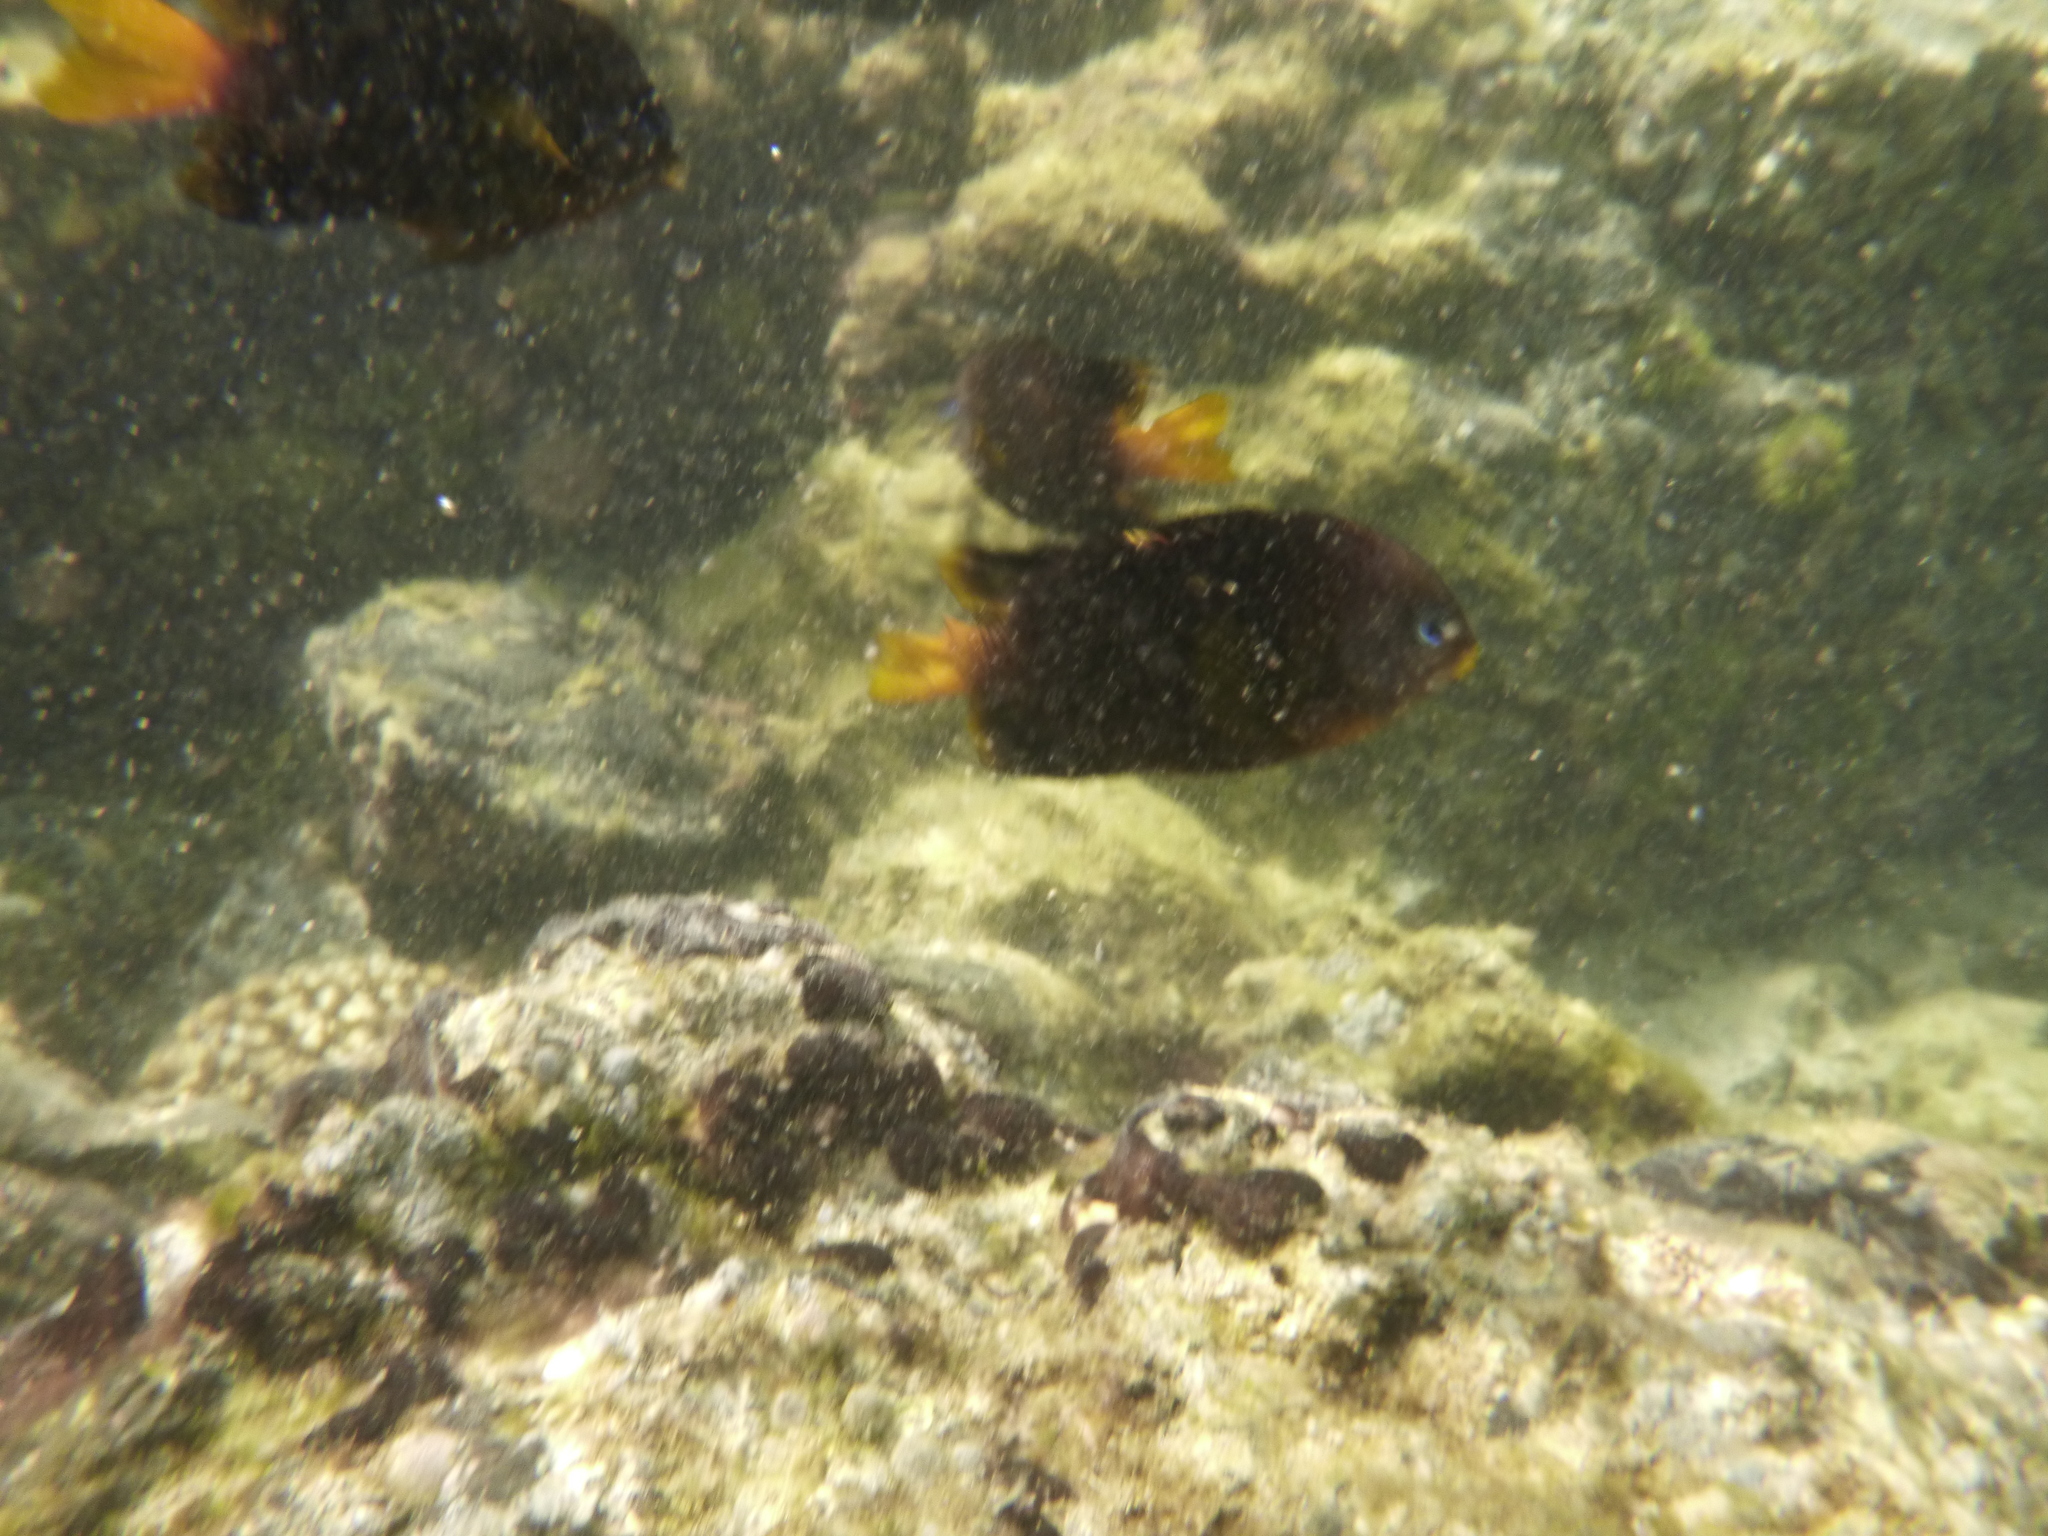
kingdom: Animalia
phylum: Chordata
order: Perciformes
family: Pomacentridae
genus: Stegastes
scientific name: Stegastes arcifrons
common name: Galapagos gregory
